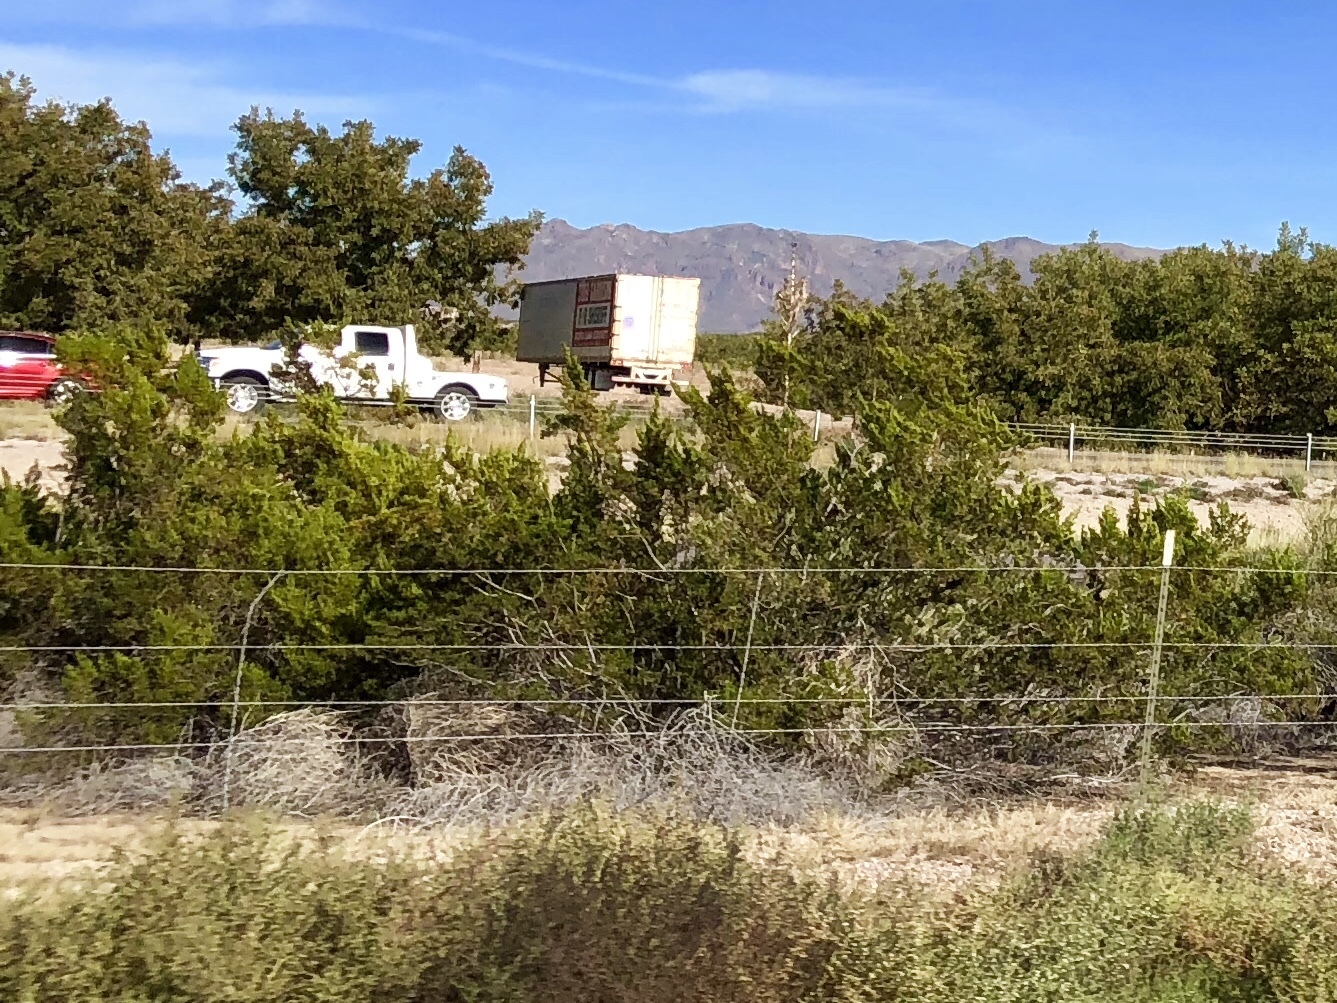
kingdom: Plantae
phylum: Tracheophyta
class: Magnoliopsida
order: Zygophyllales
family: Zygophyllaceae
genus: Larrea
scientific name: Larrea tridentata
